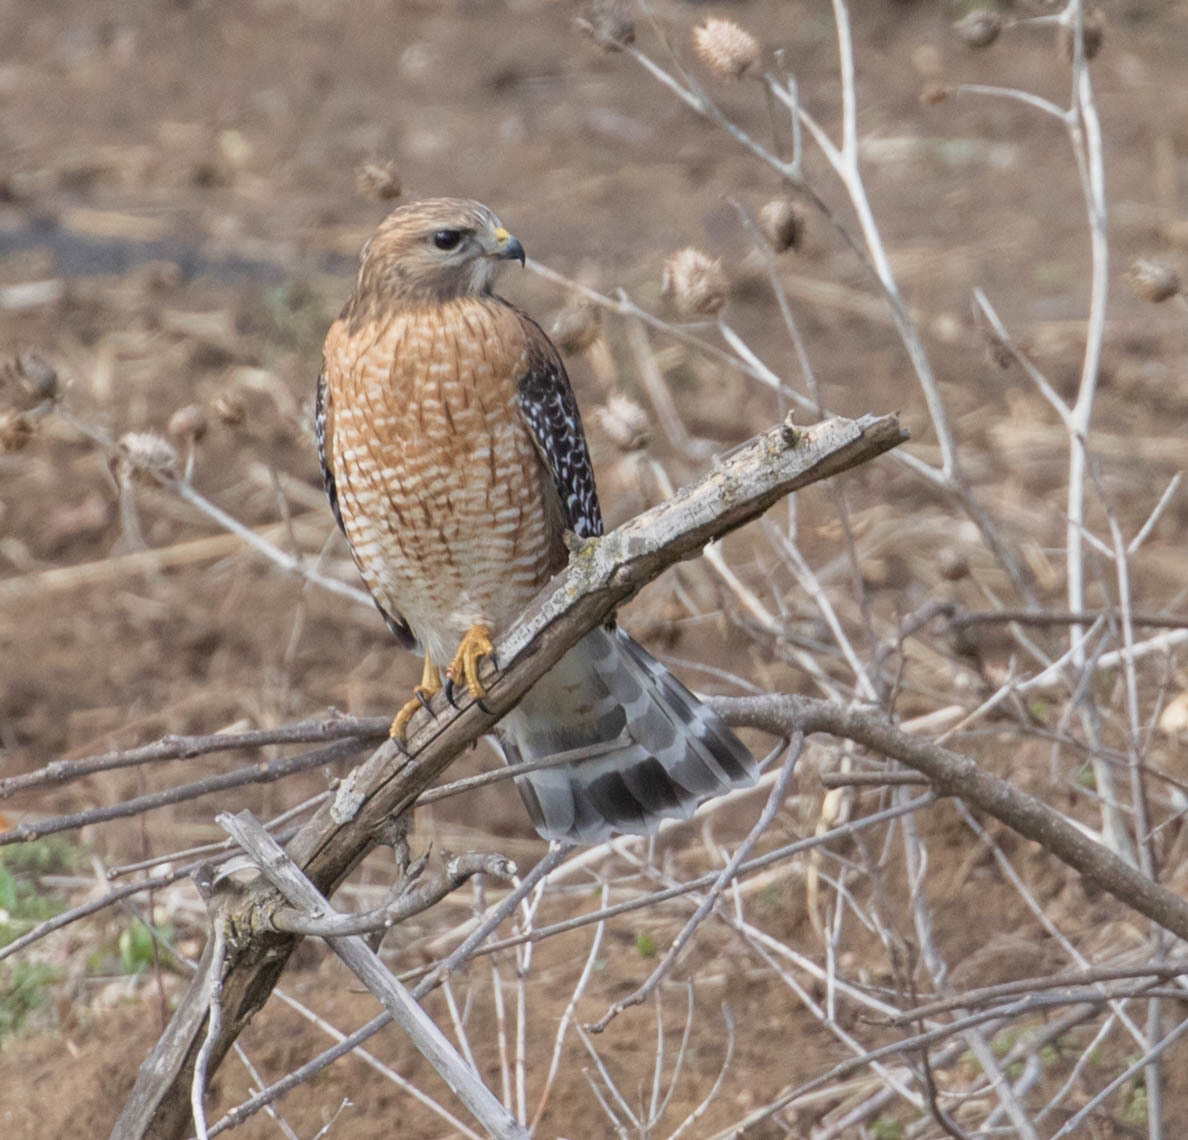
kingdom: Animalia
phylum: Chordata
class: Aves
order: Accipitriformes
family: Accipitridae
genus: Buteo
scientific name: Buteo lineatus
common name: Red-shouldered hawk
